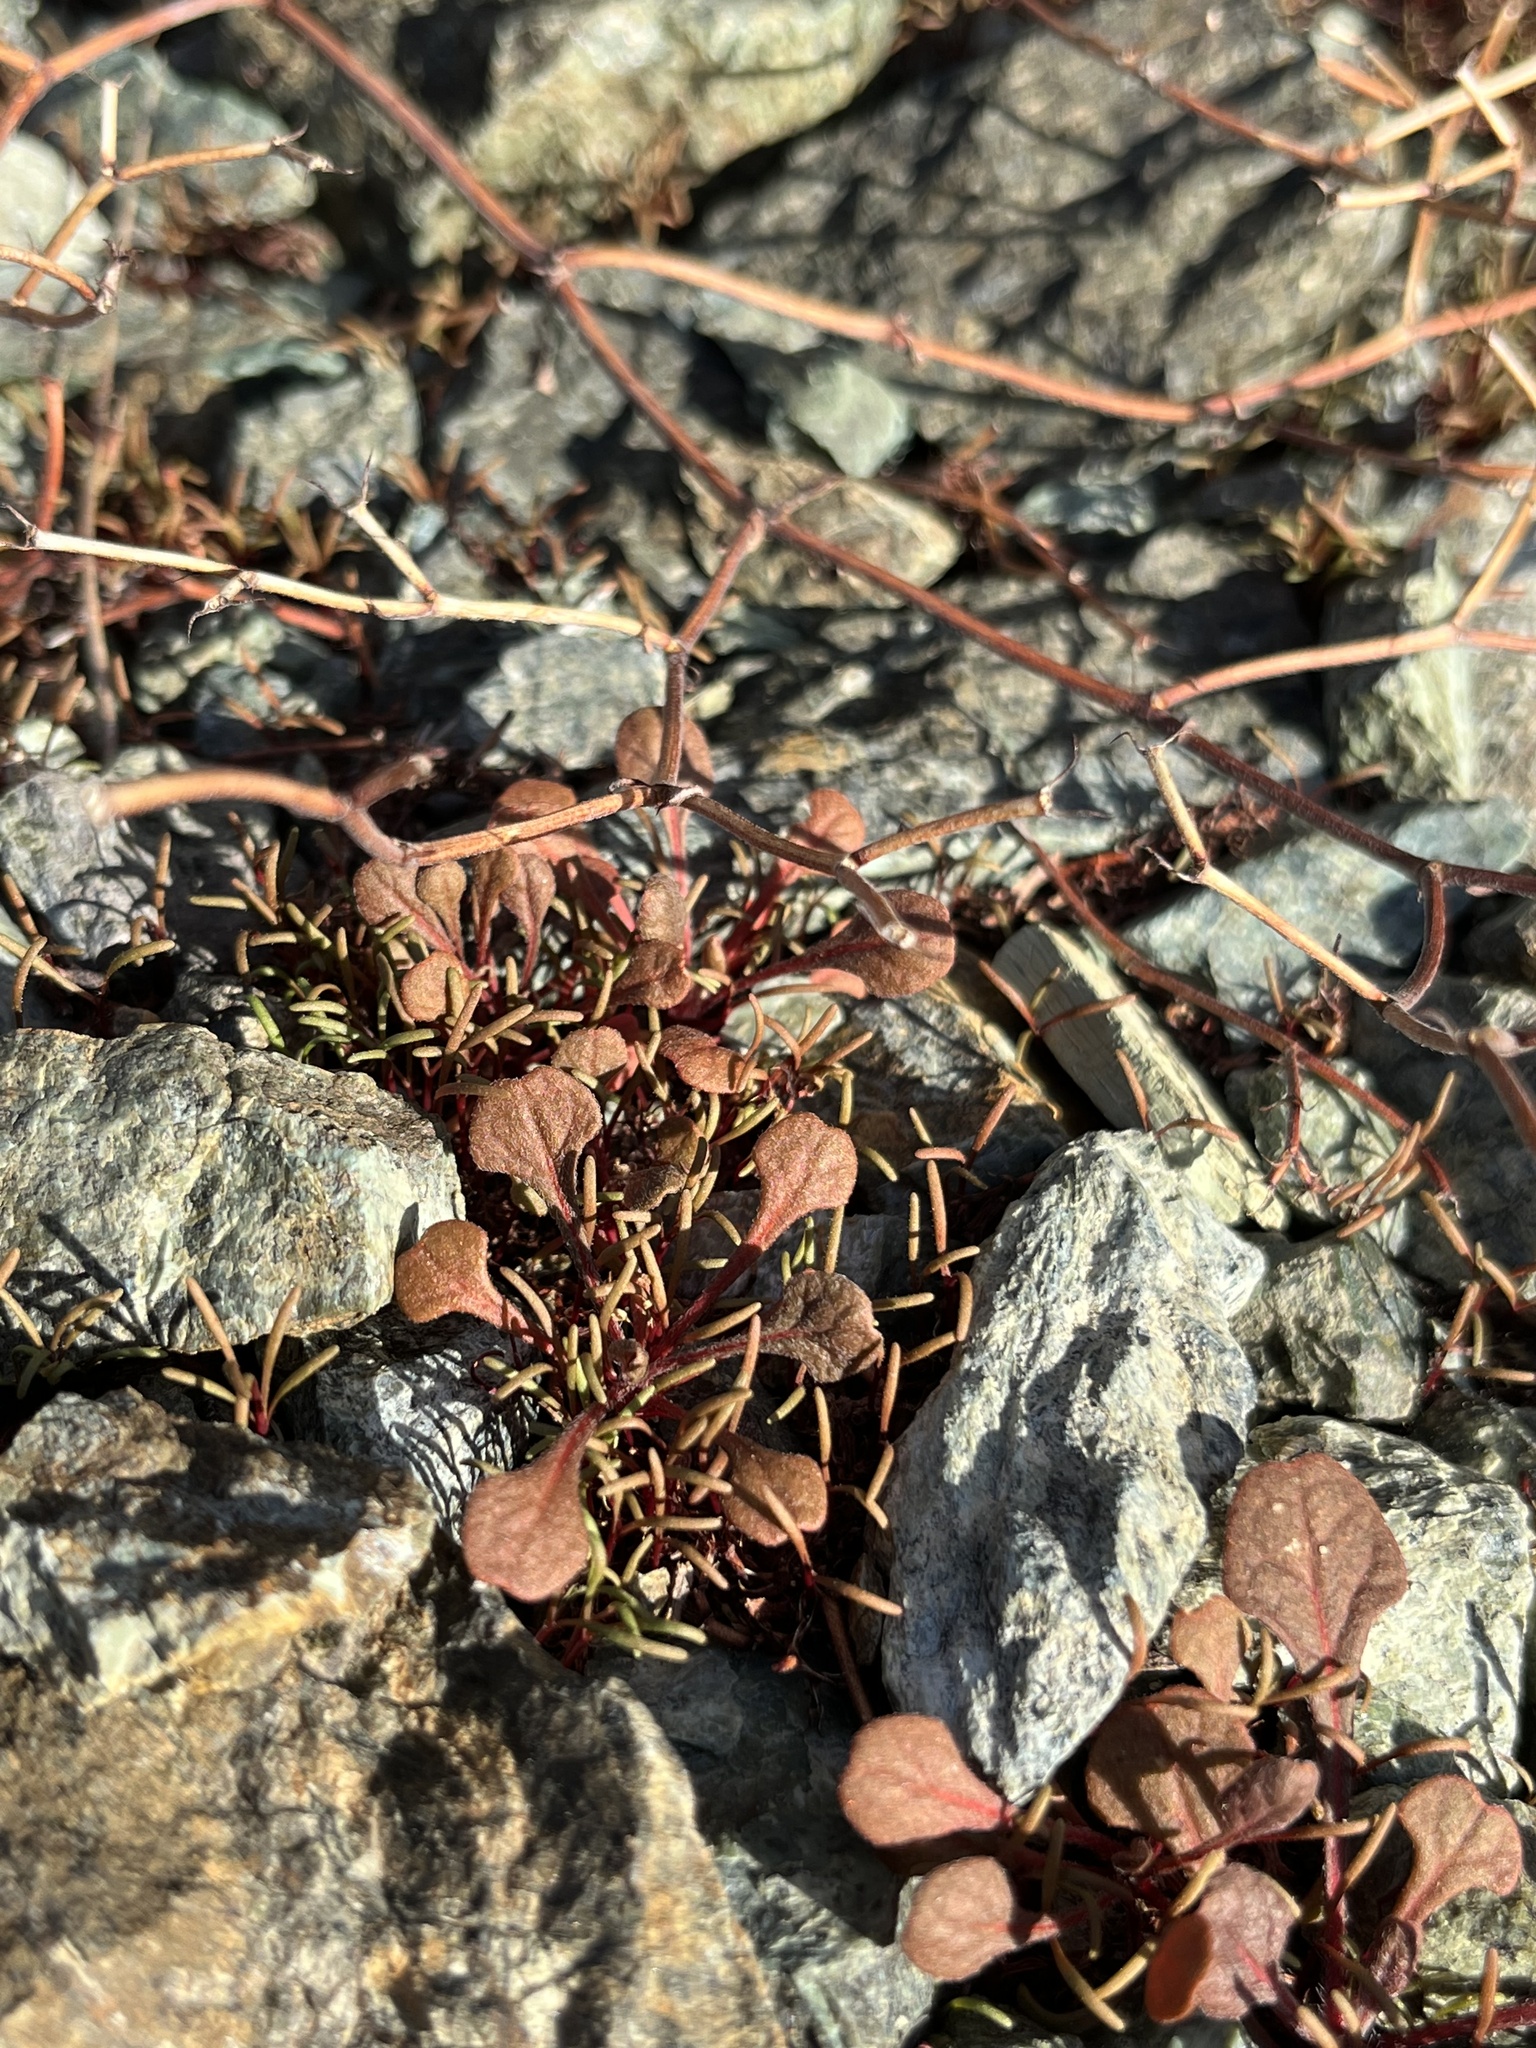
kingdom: Plantae
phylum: Tracheophyta
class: Magnoliopsida
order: Caryophyllales
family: Polygonaceae
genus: Chorizanthe
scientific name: Chorizanthe breweri
